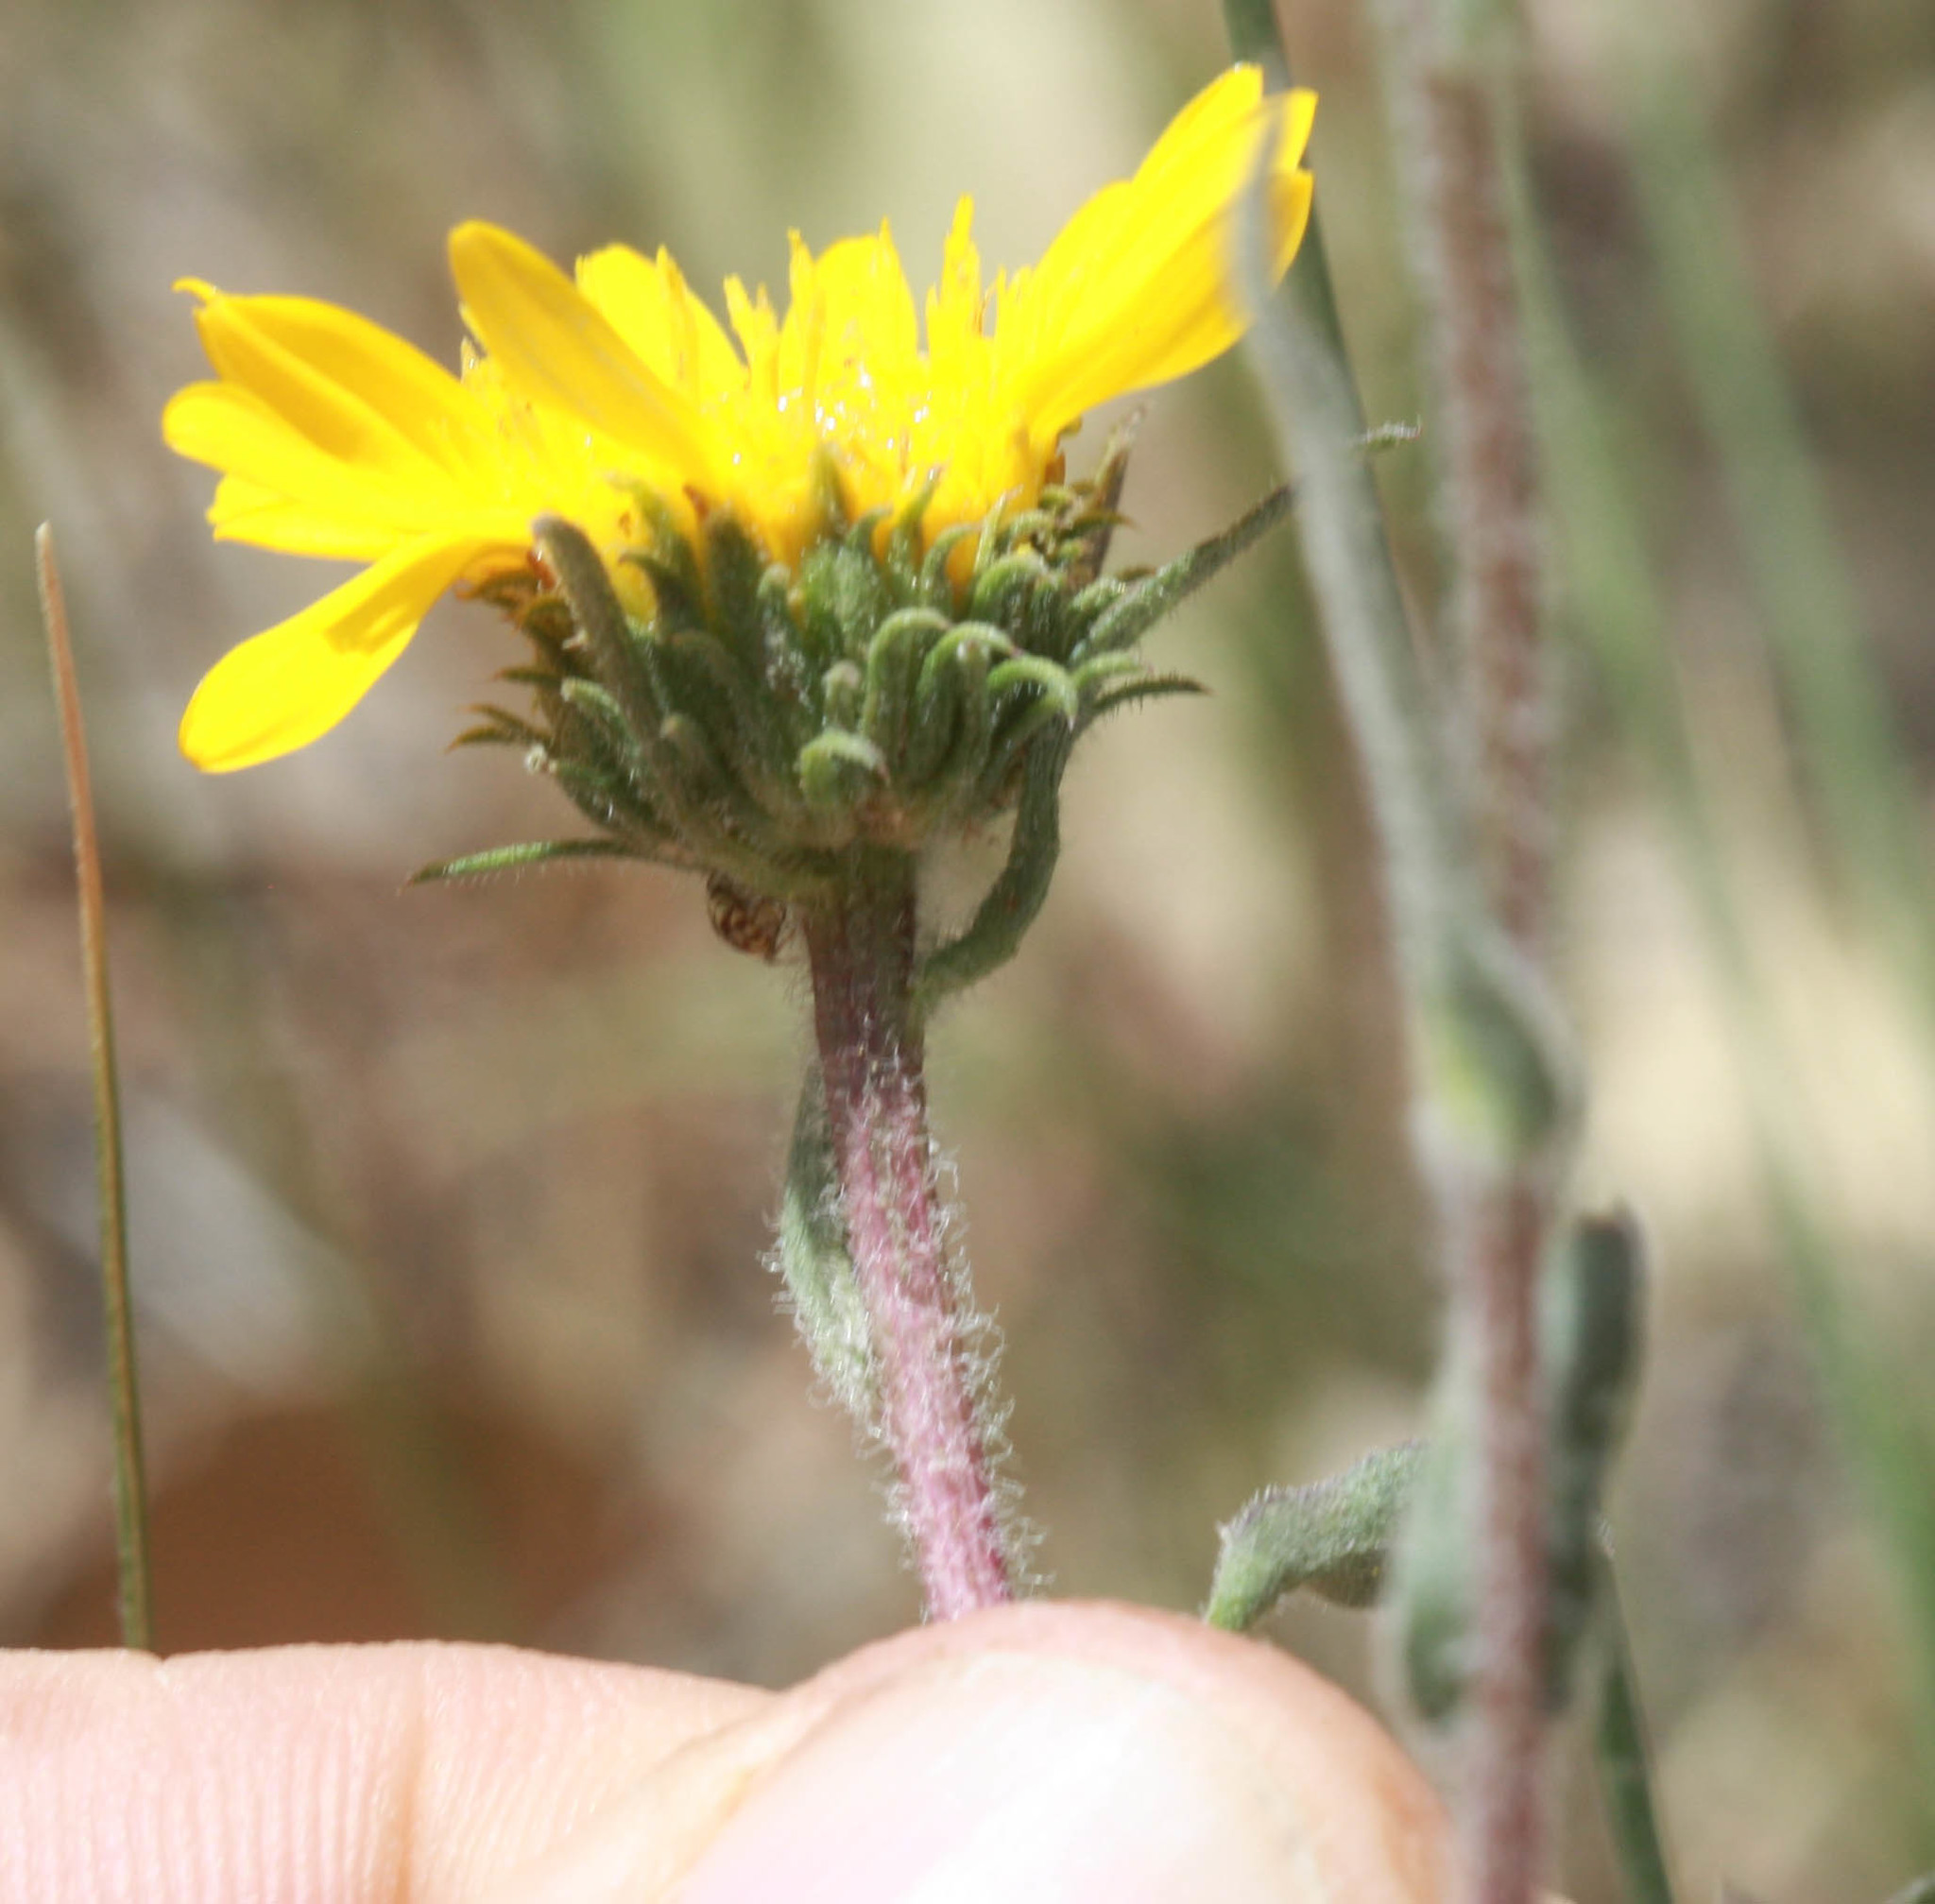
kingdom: Plantae
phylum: Tracheophyta
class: Magnoliopsida
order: Asterales
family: Asteraceae
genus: Grindelia
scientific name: Grindelia hirsutula
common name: Hairy gumweed
